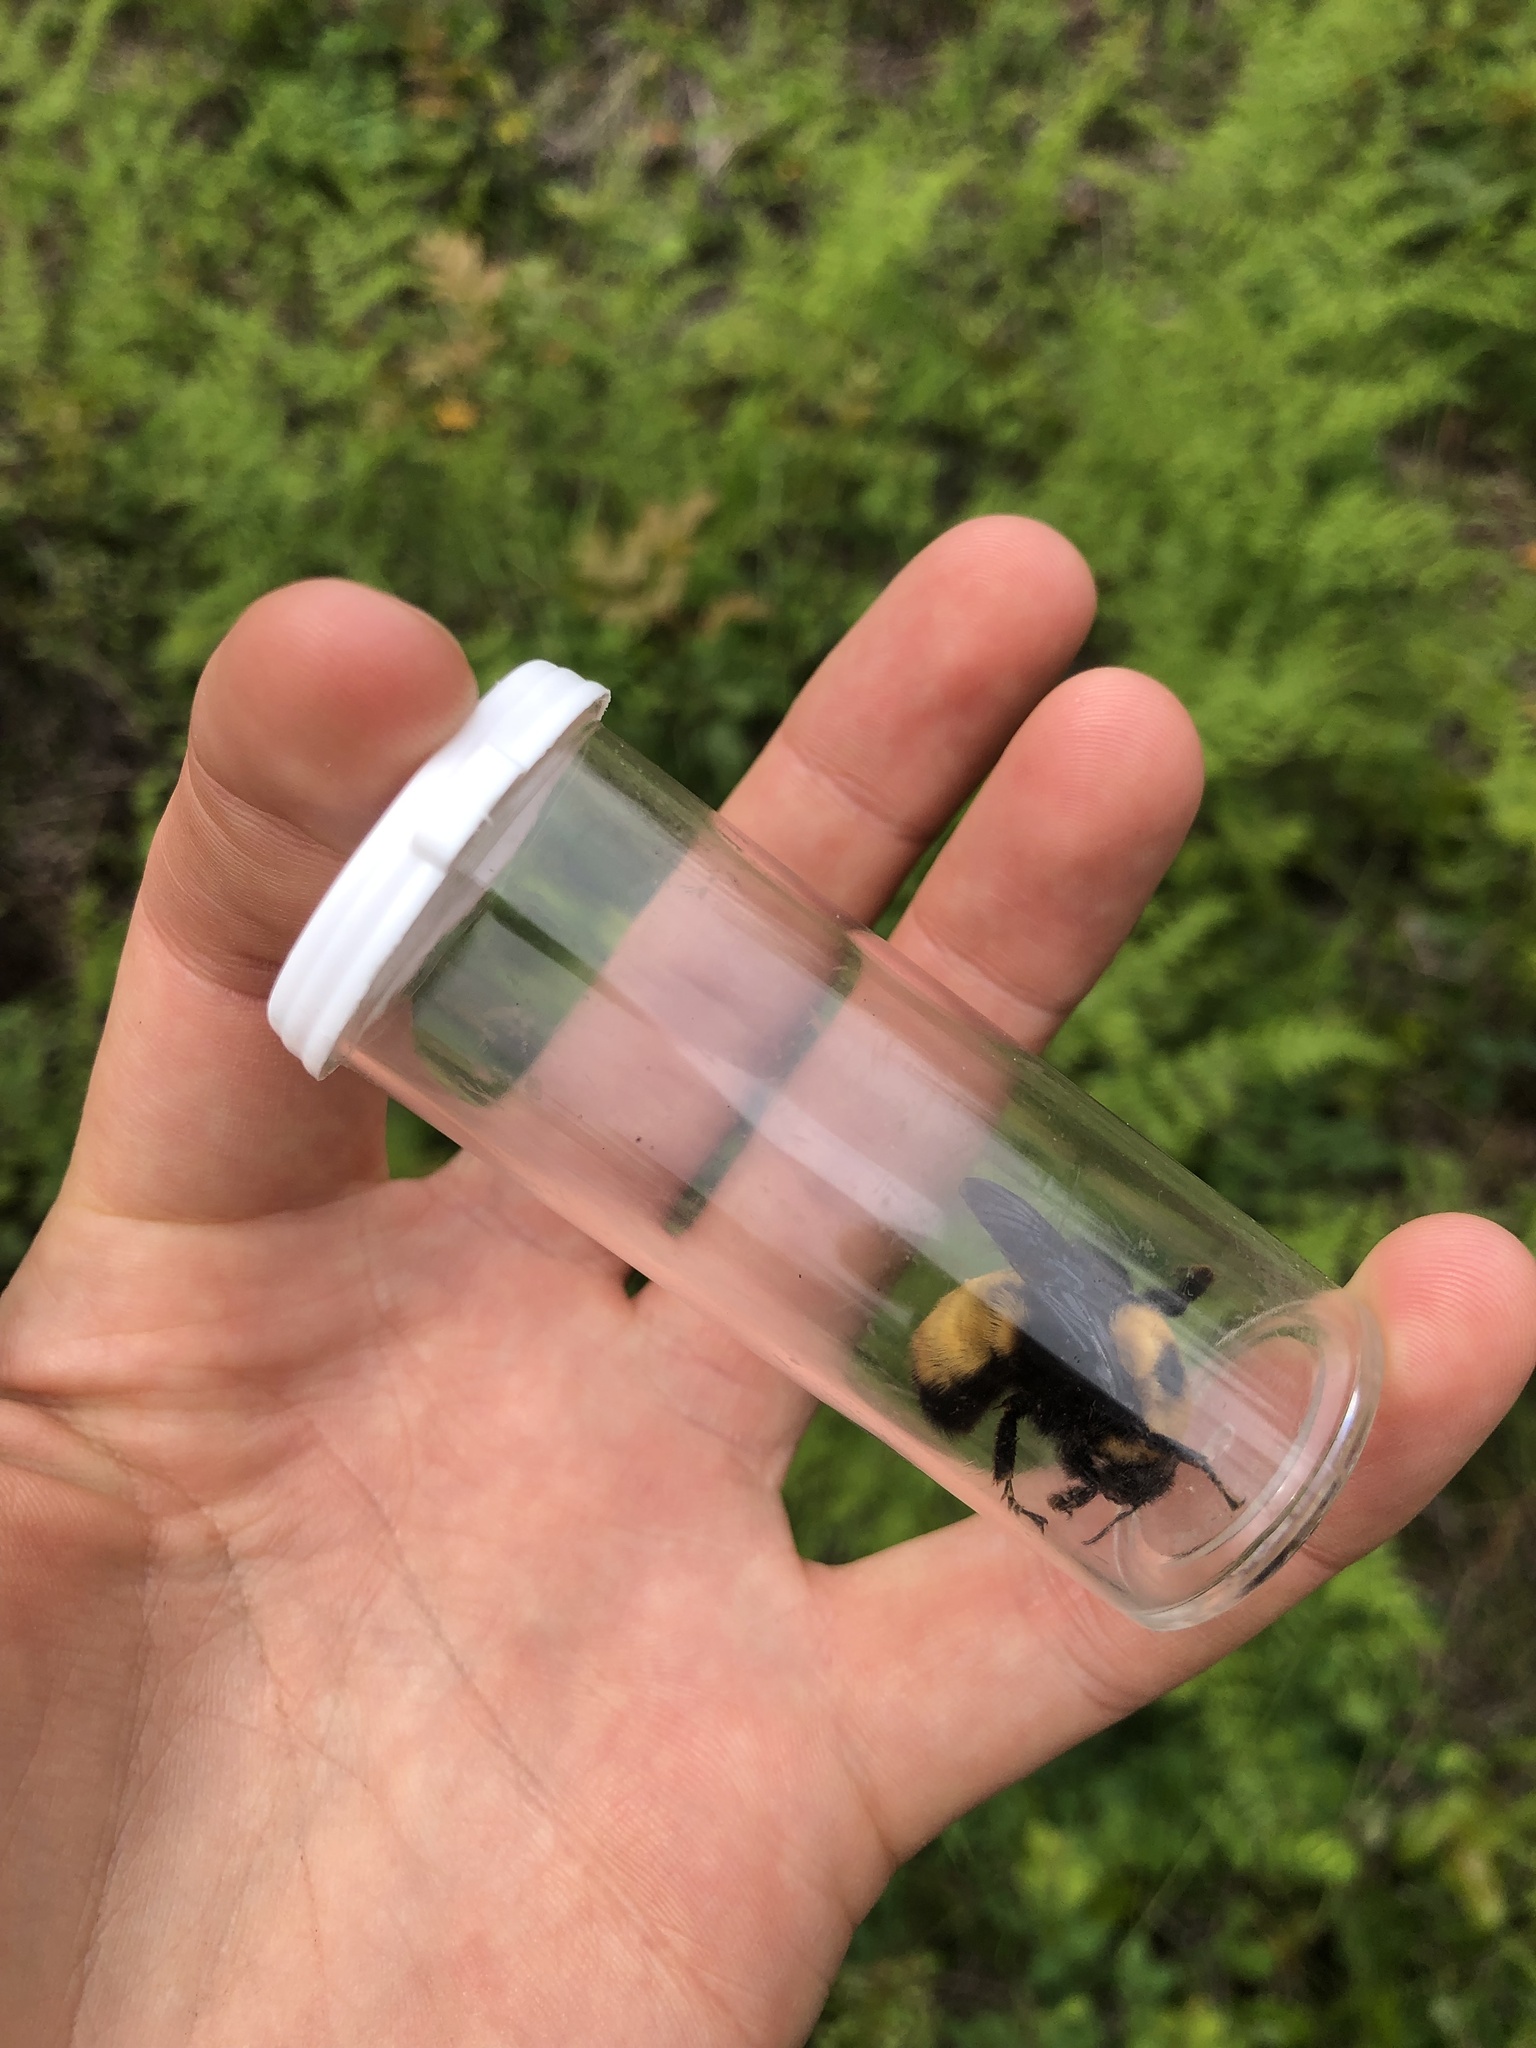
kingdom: Animalia
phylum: Arthropoda
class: Insecta
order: Hymenoptera
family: Apidae
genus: Bombus
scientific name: Bombus nevadensis
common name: Nevada bumble bee
